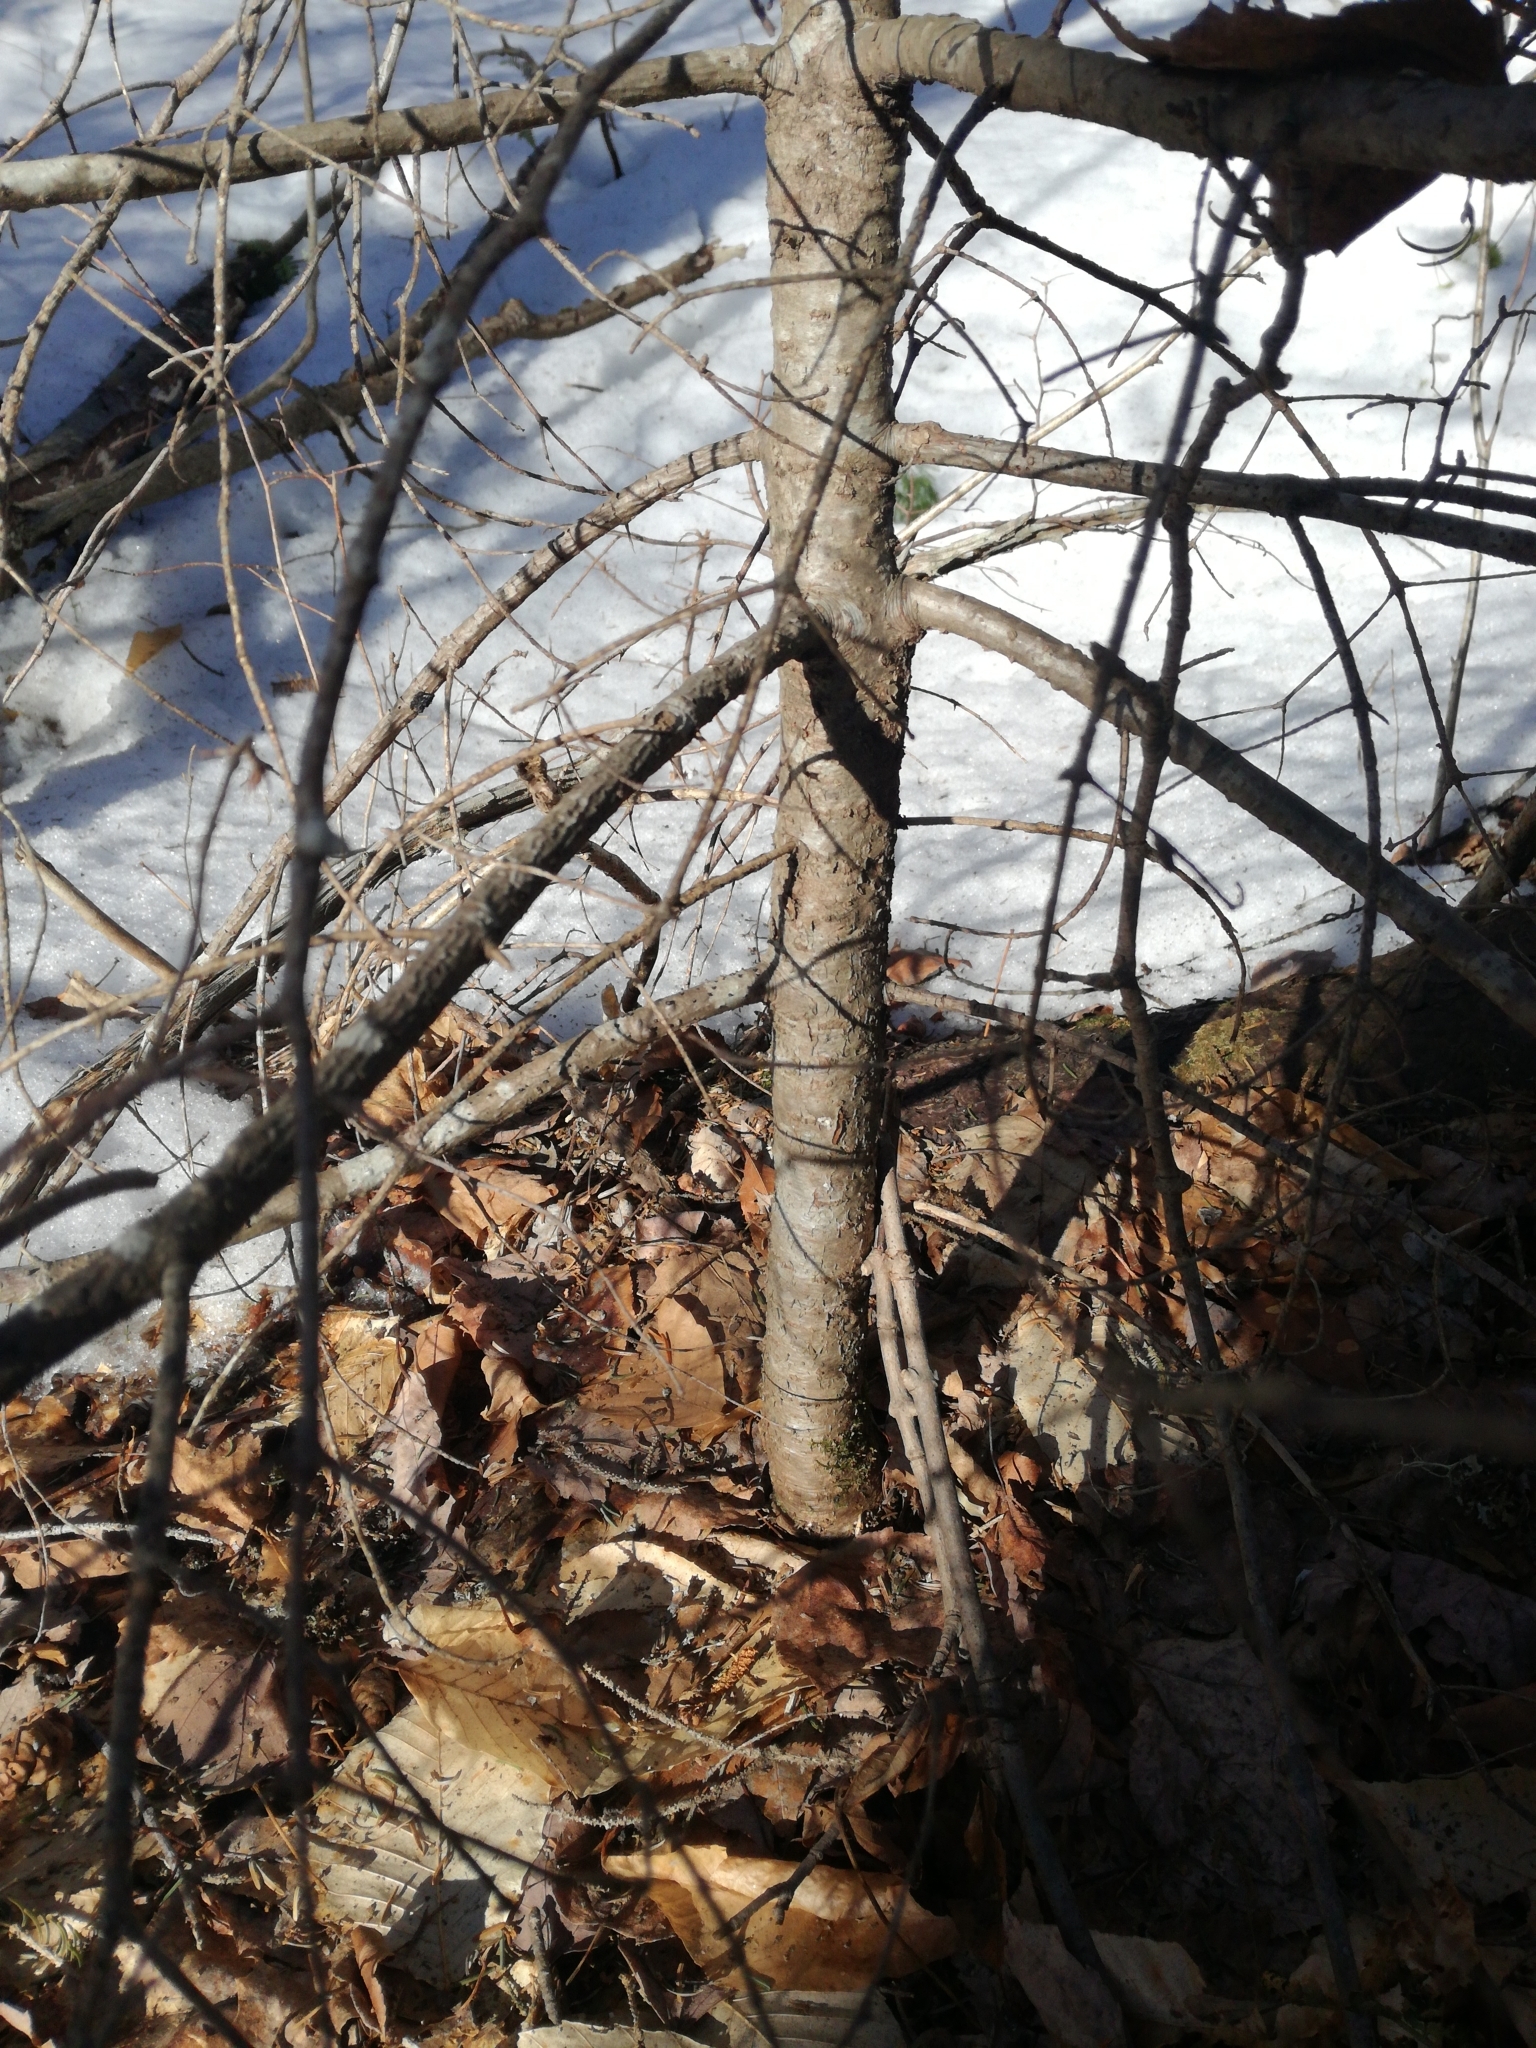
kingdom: Plantae
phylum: Tracheophyta
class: Pinopsida
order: Pinales
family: Pinaceae
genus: Abies
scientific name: Abies balsamea
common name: Balsam fir
